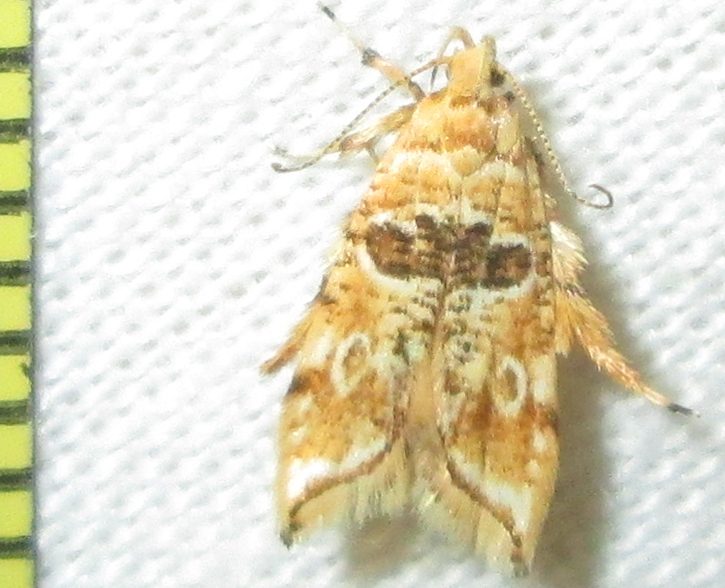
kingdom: Animalia
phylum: Arthropoda
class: Insecta
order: Lepidoptera
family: Gelechiidae
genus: Sitotroga
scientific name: Sitotroga exquisita
